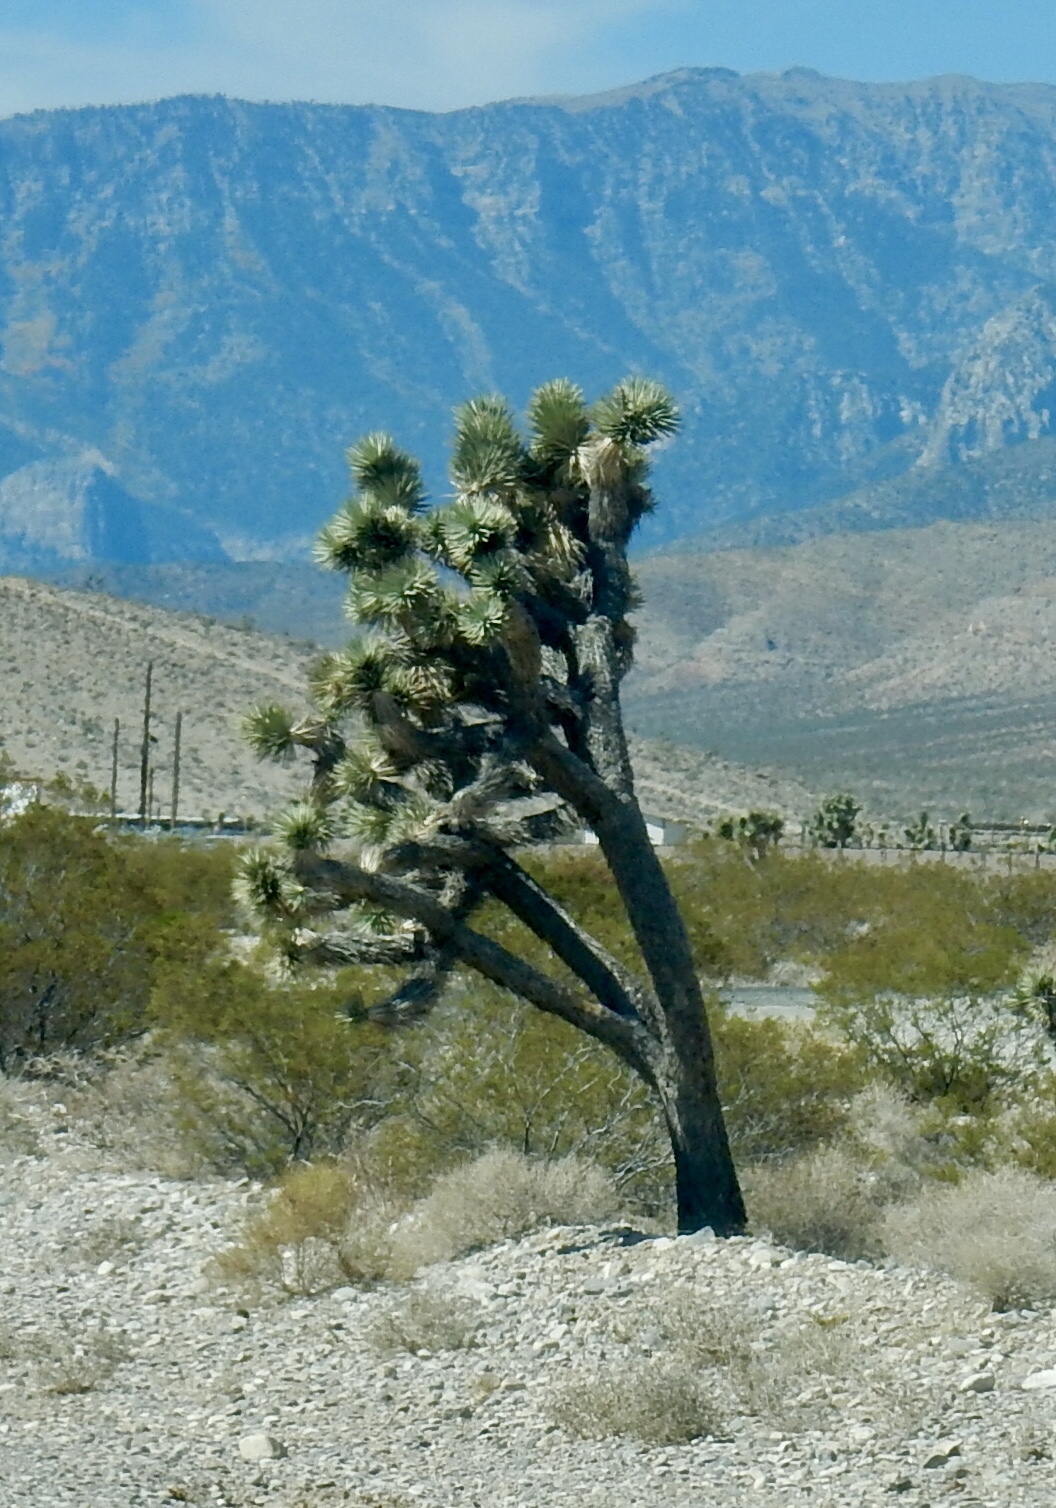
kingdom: Plantae
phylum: Tracheophyta
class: Liliopsida
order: Asparagales
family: Asparagaceae
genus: Yucca
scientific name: Yucca brevifolia
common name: Joshua tree
